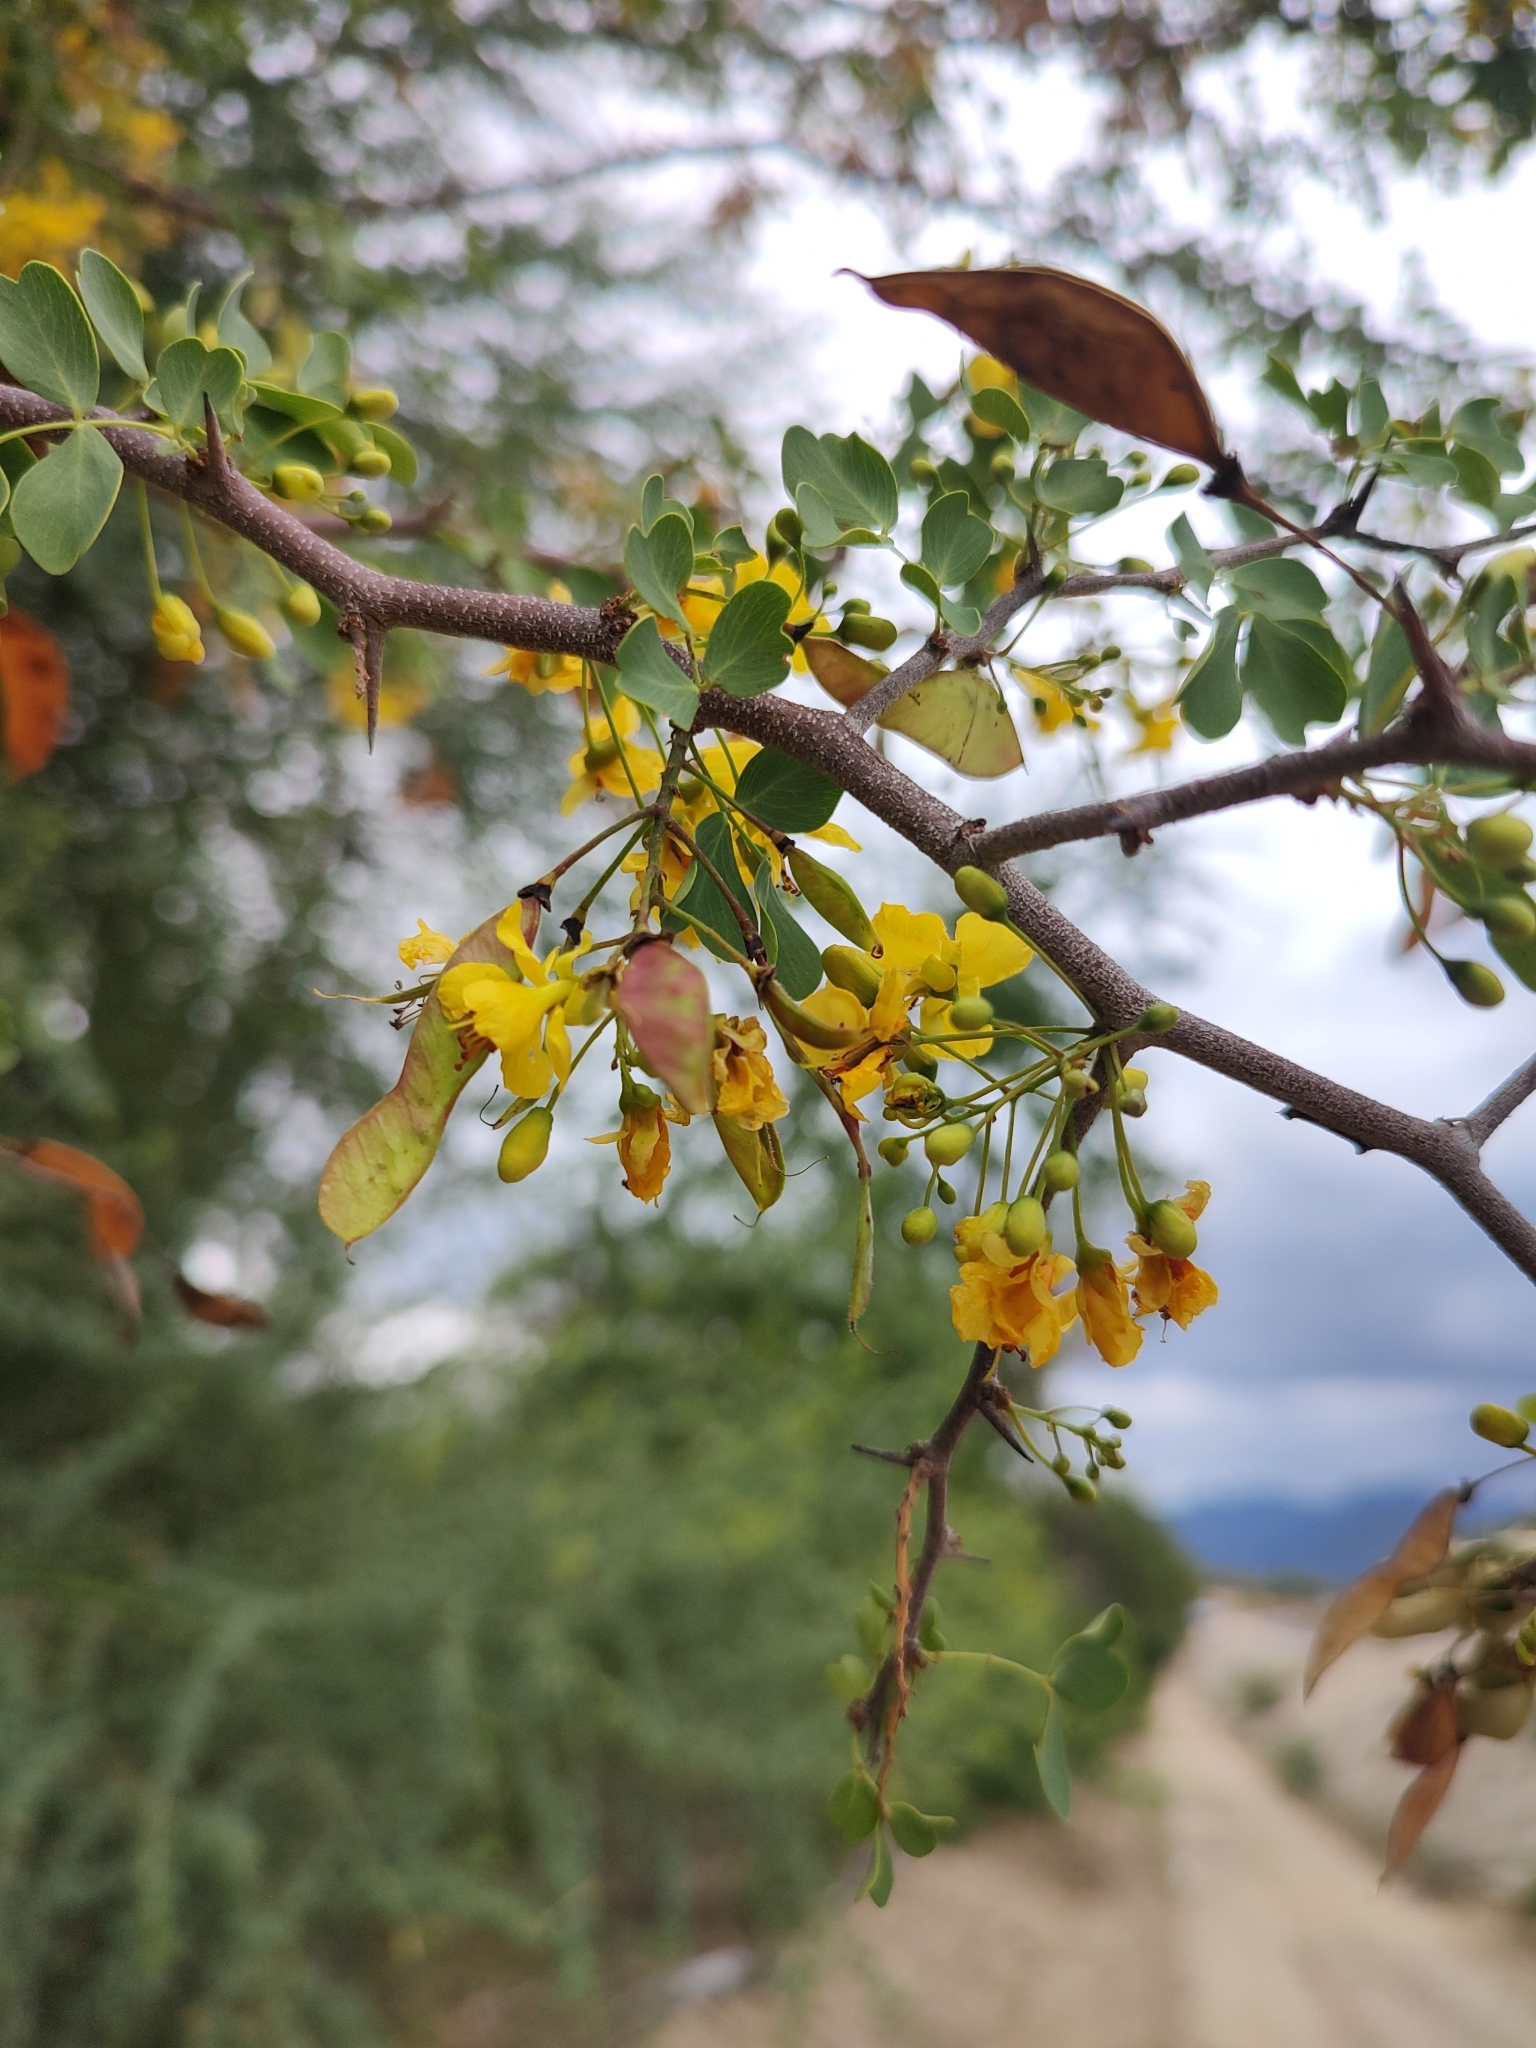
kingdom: Plantae
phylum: Tracheophyta
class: Magnoliopsida
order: Fabales
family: Fabaceae
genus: Haematoxylum
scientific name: Haematoxylum brasiletto
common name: Peachwood
